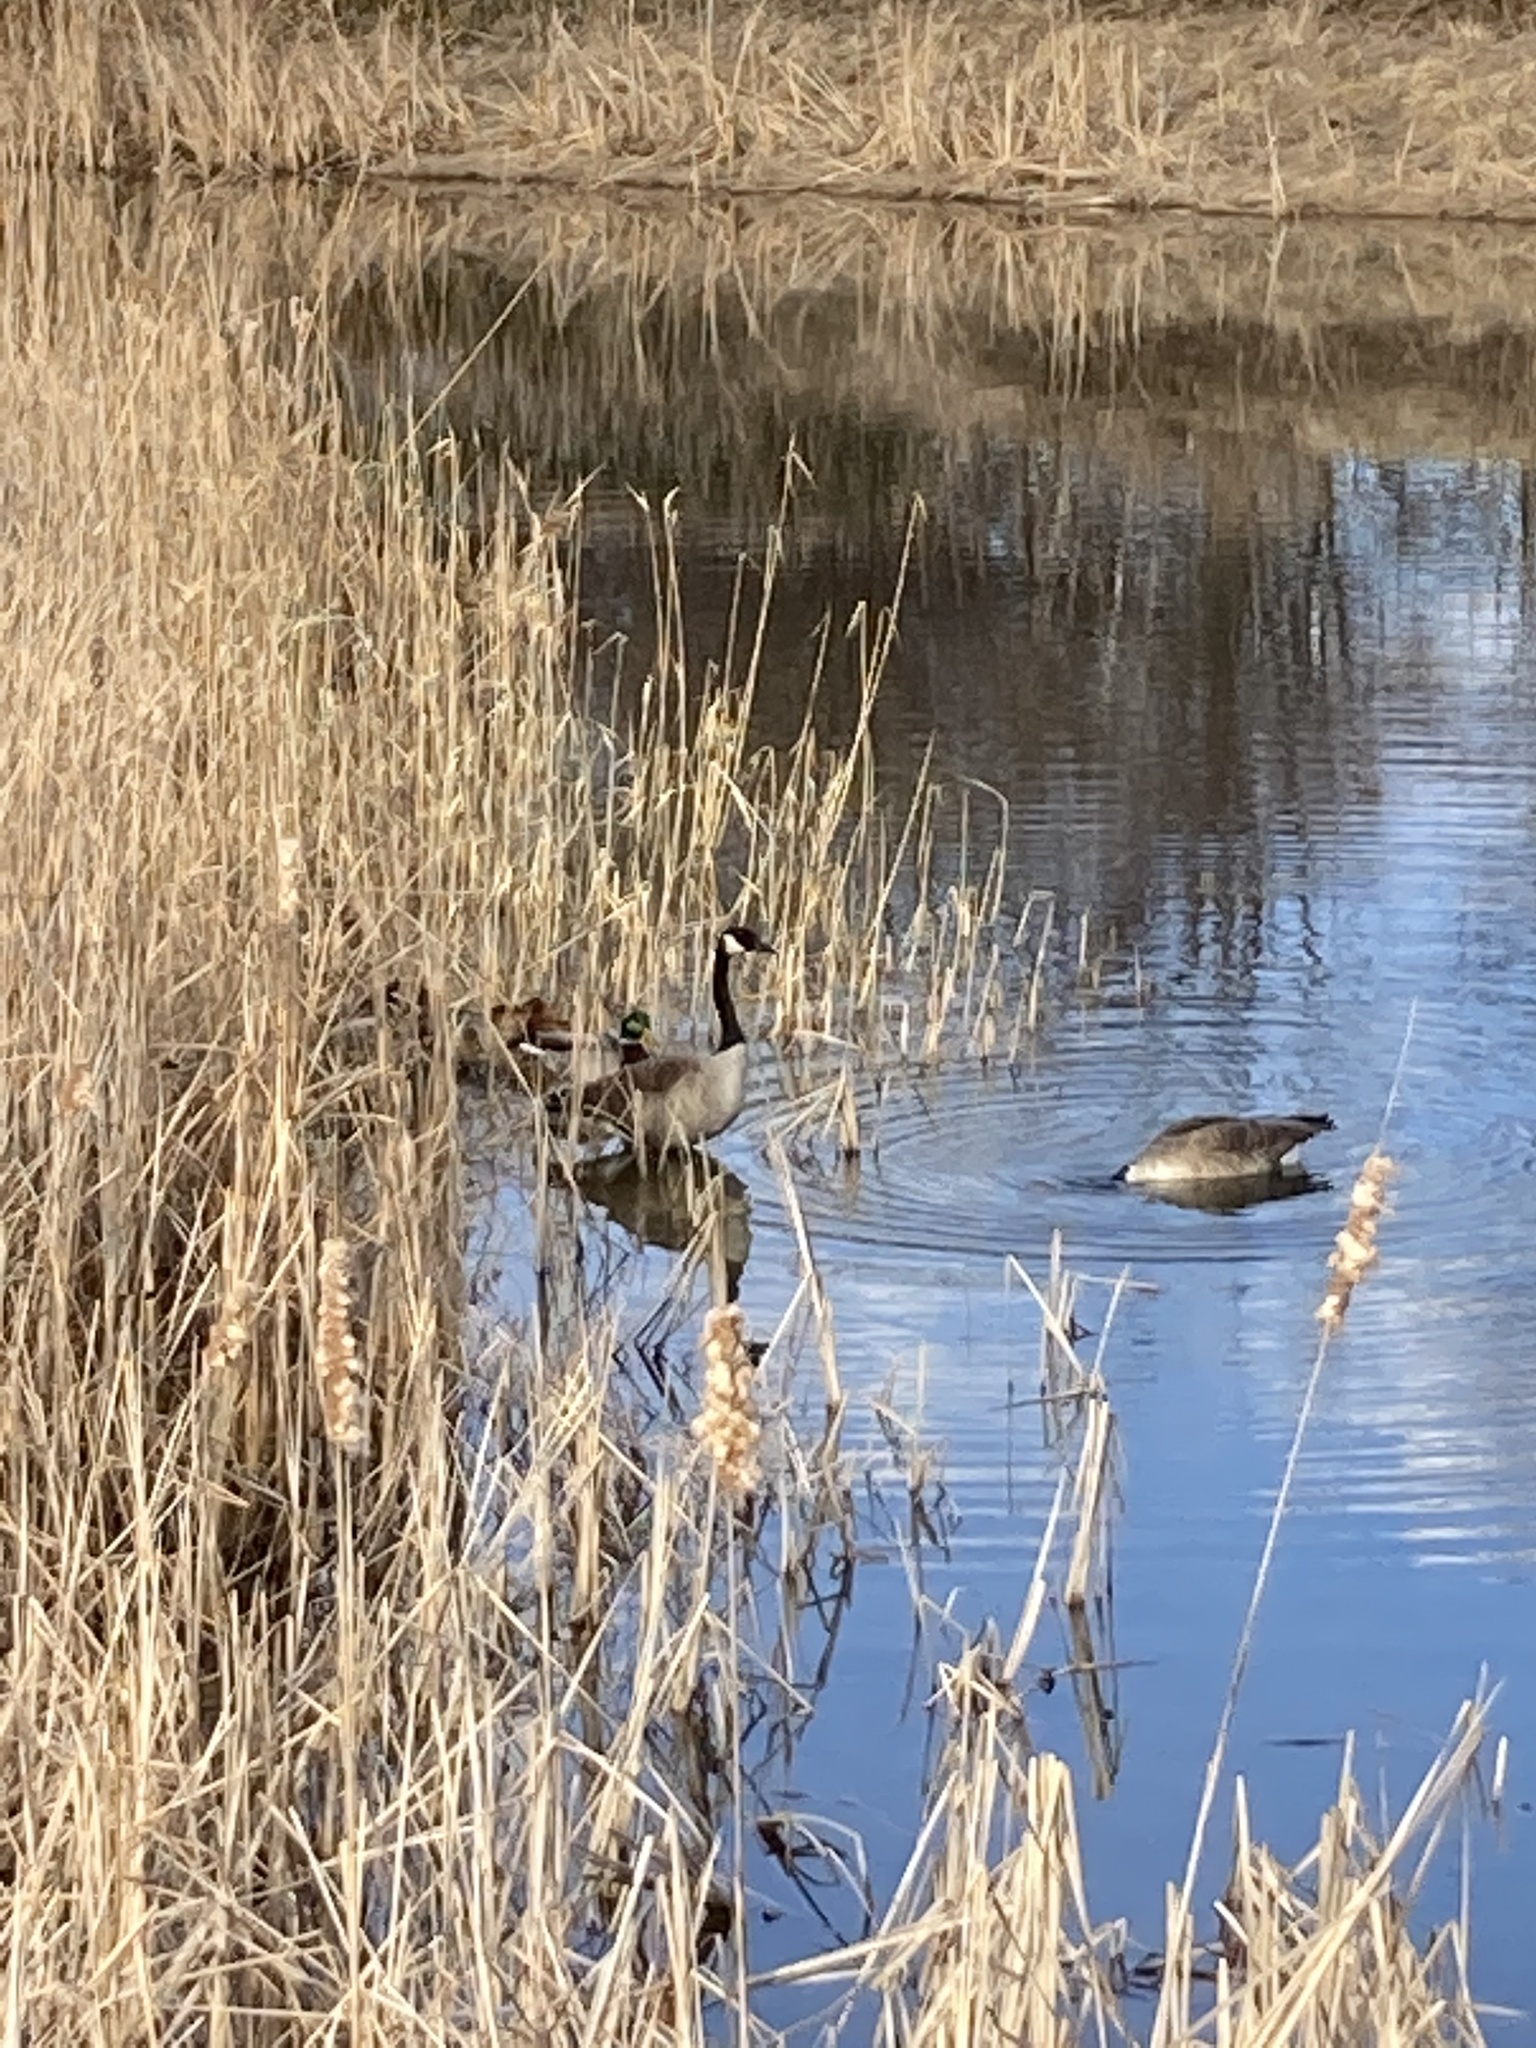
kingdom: Animalia
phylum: Chordata
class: Aves
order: Anseriformes
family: Anatidae
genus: Branta
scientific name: Branta canadensis
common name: Canada goose
